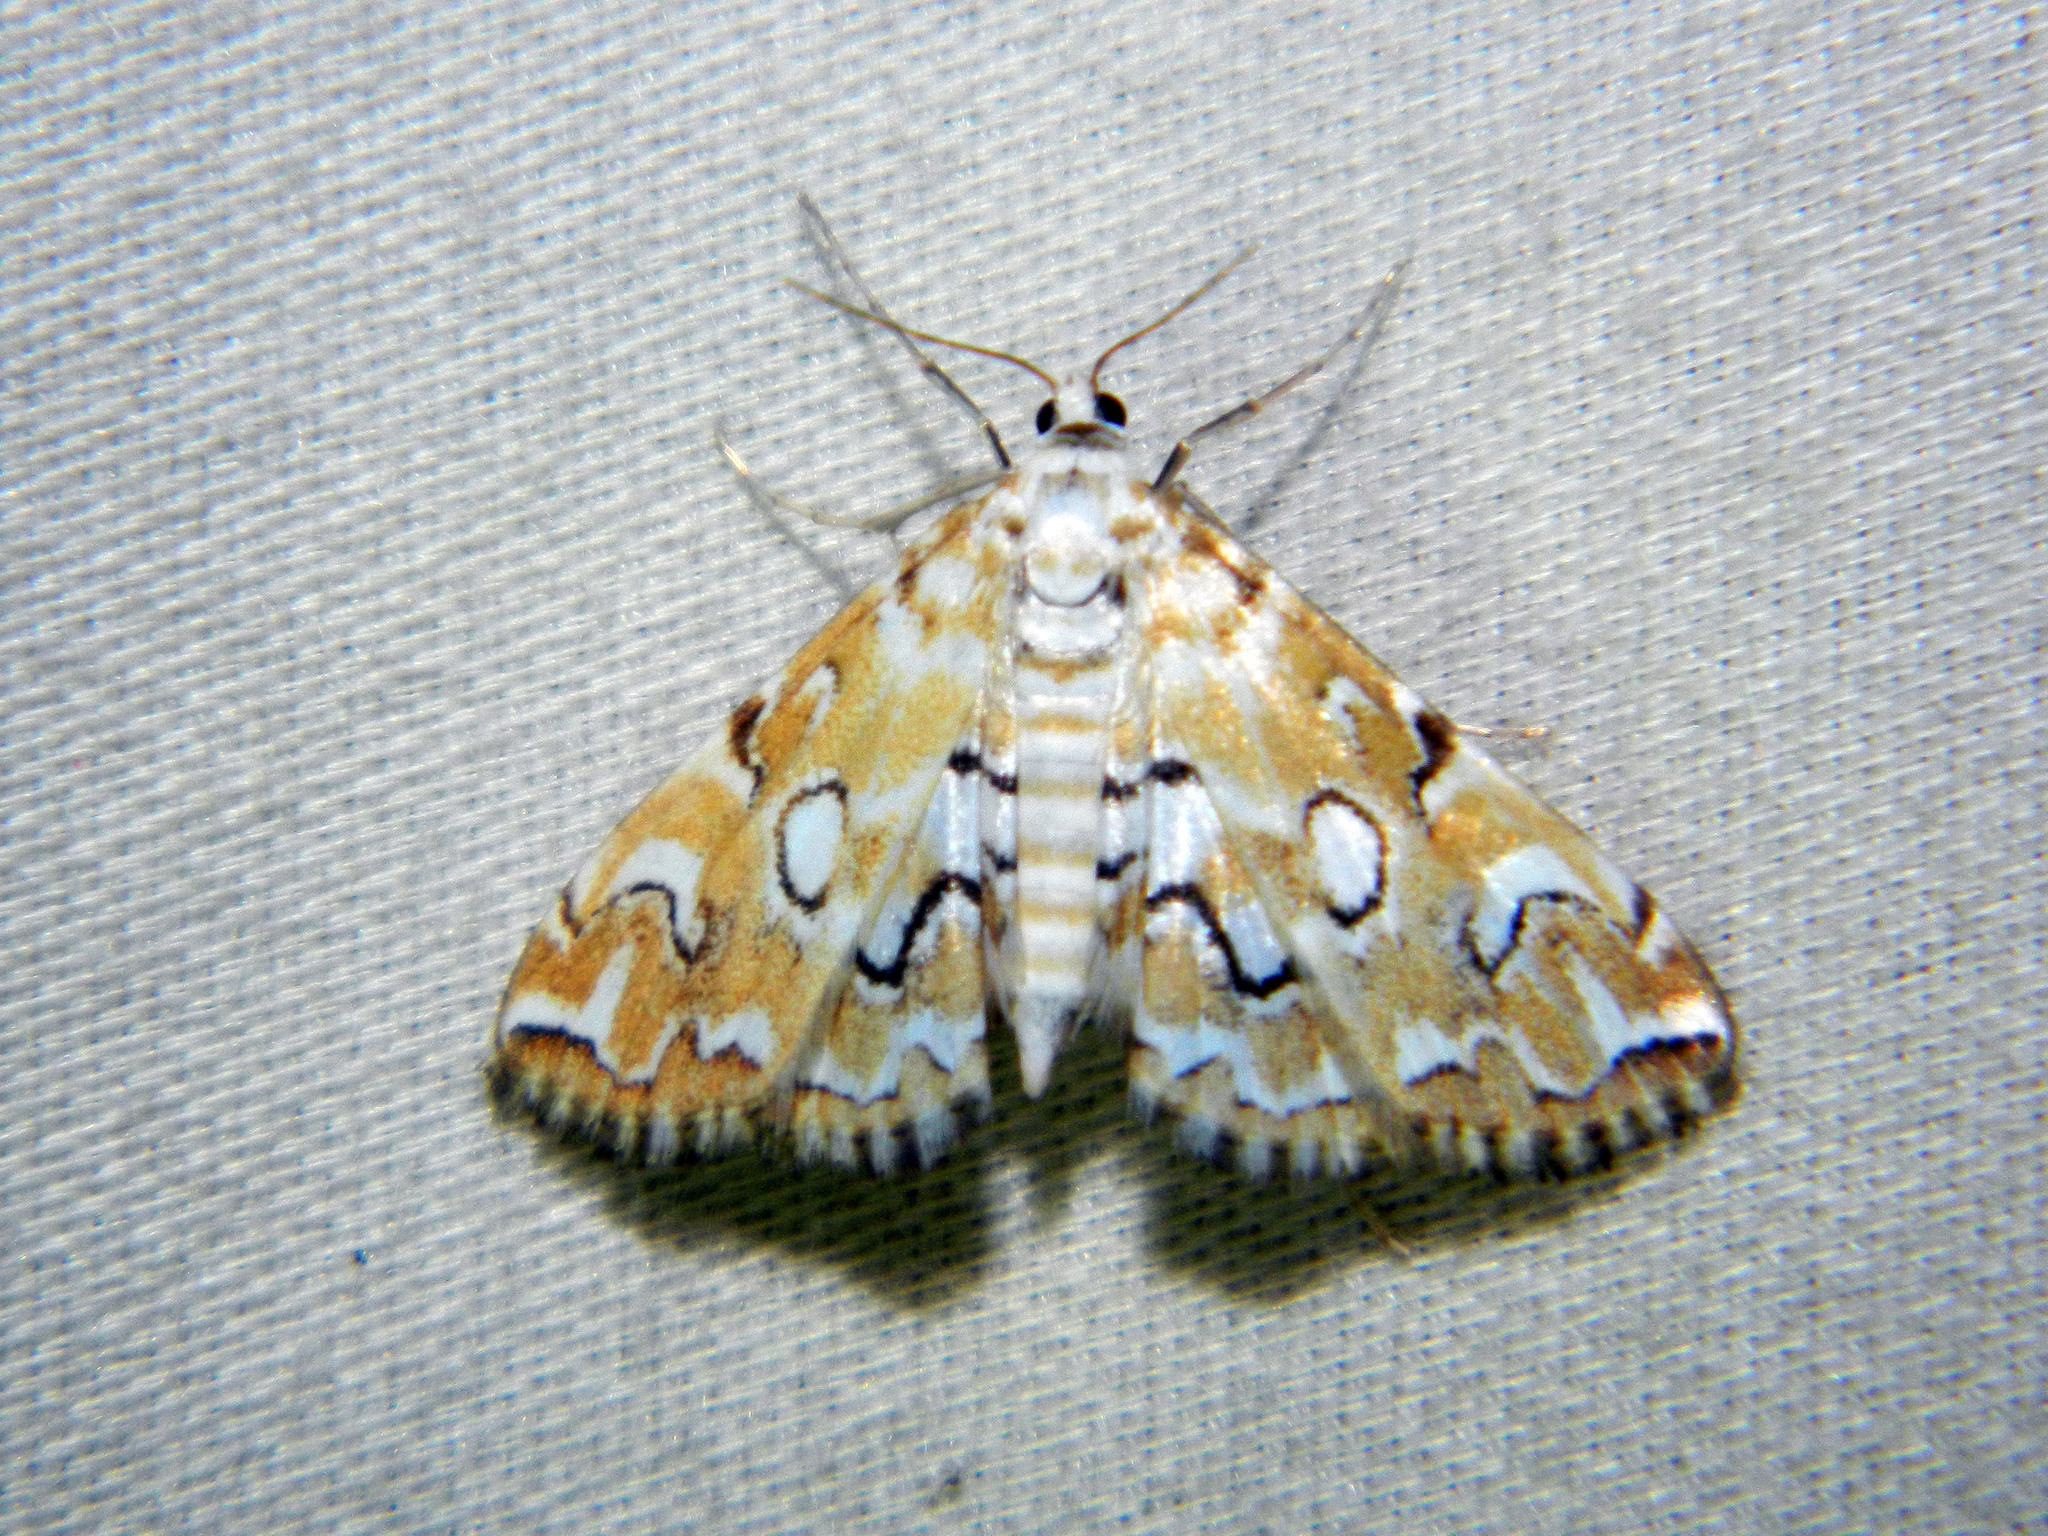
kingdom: Animalia
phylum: Arthropoda
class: Insecta
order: Lepidoptera
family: Crambidae
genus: Elophila
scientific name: Elophila icciusalis
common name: Pondside pyralid moth
